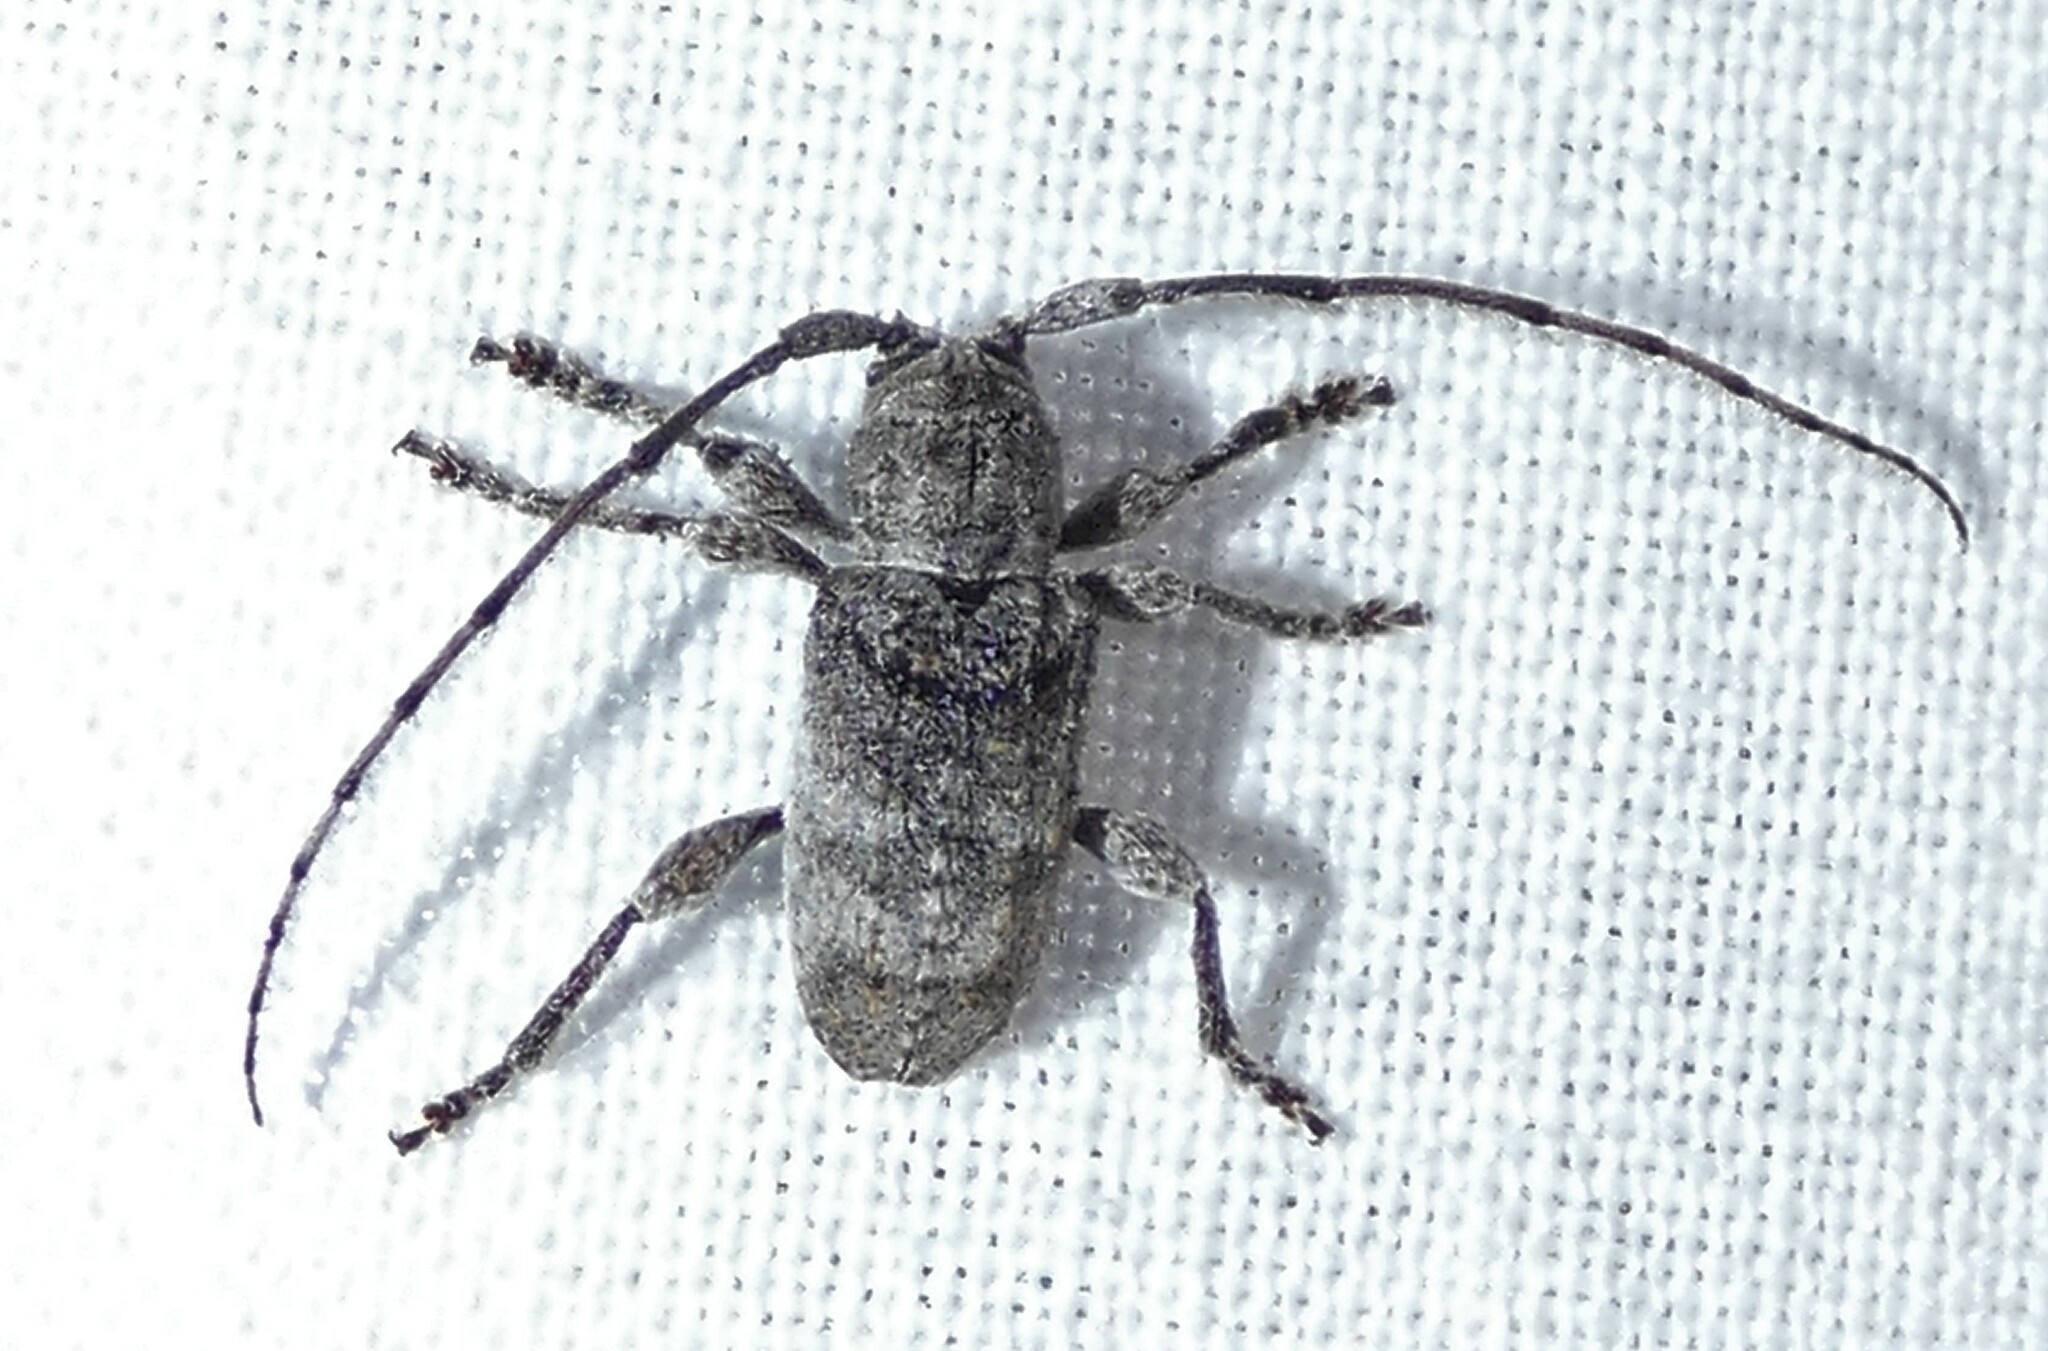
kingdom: Animalia
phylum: Arthropoda
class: Insecta
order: Coleoptera
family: Cerambycidae
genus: Ecyrus
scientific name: Ecyrus dasycerus
